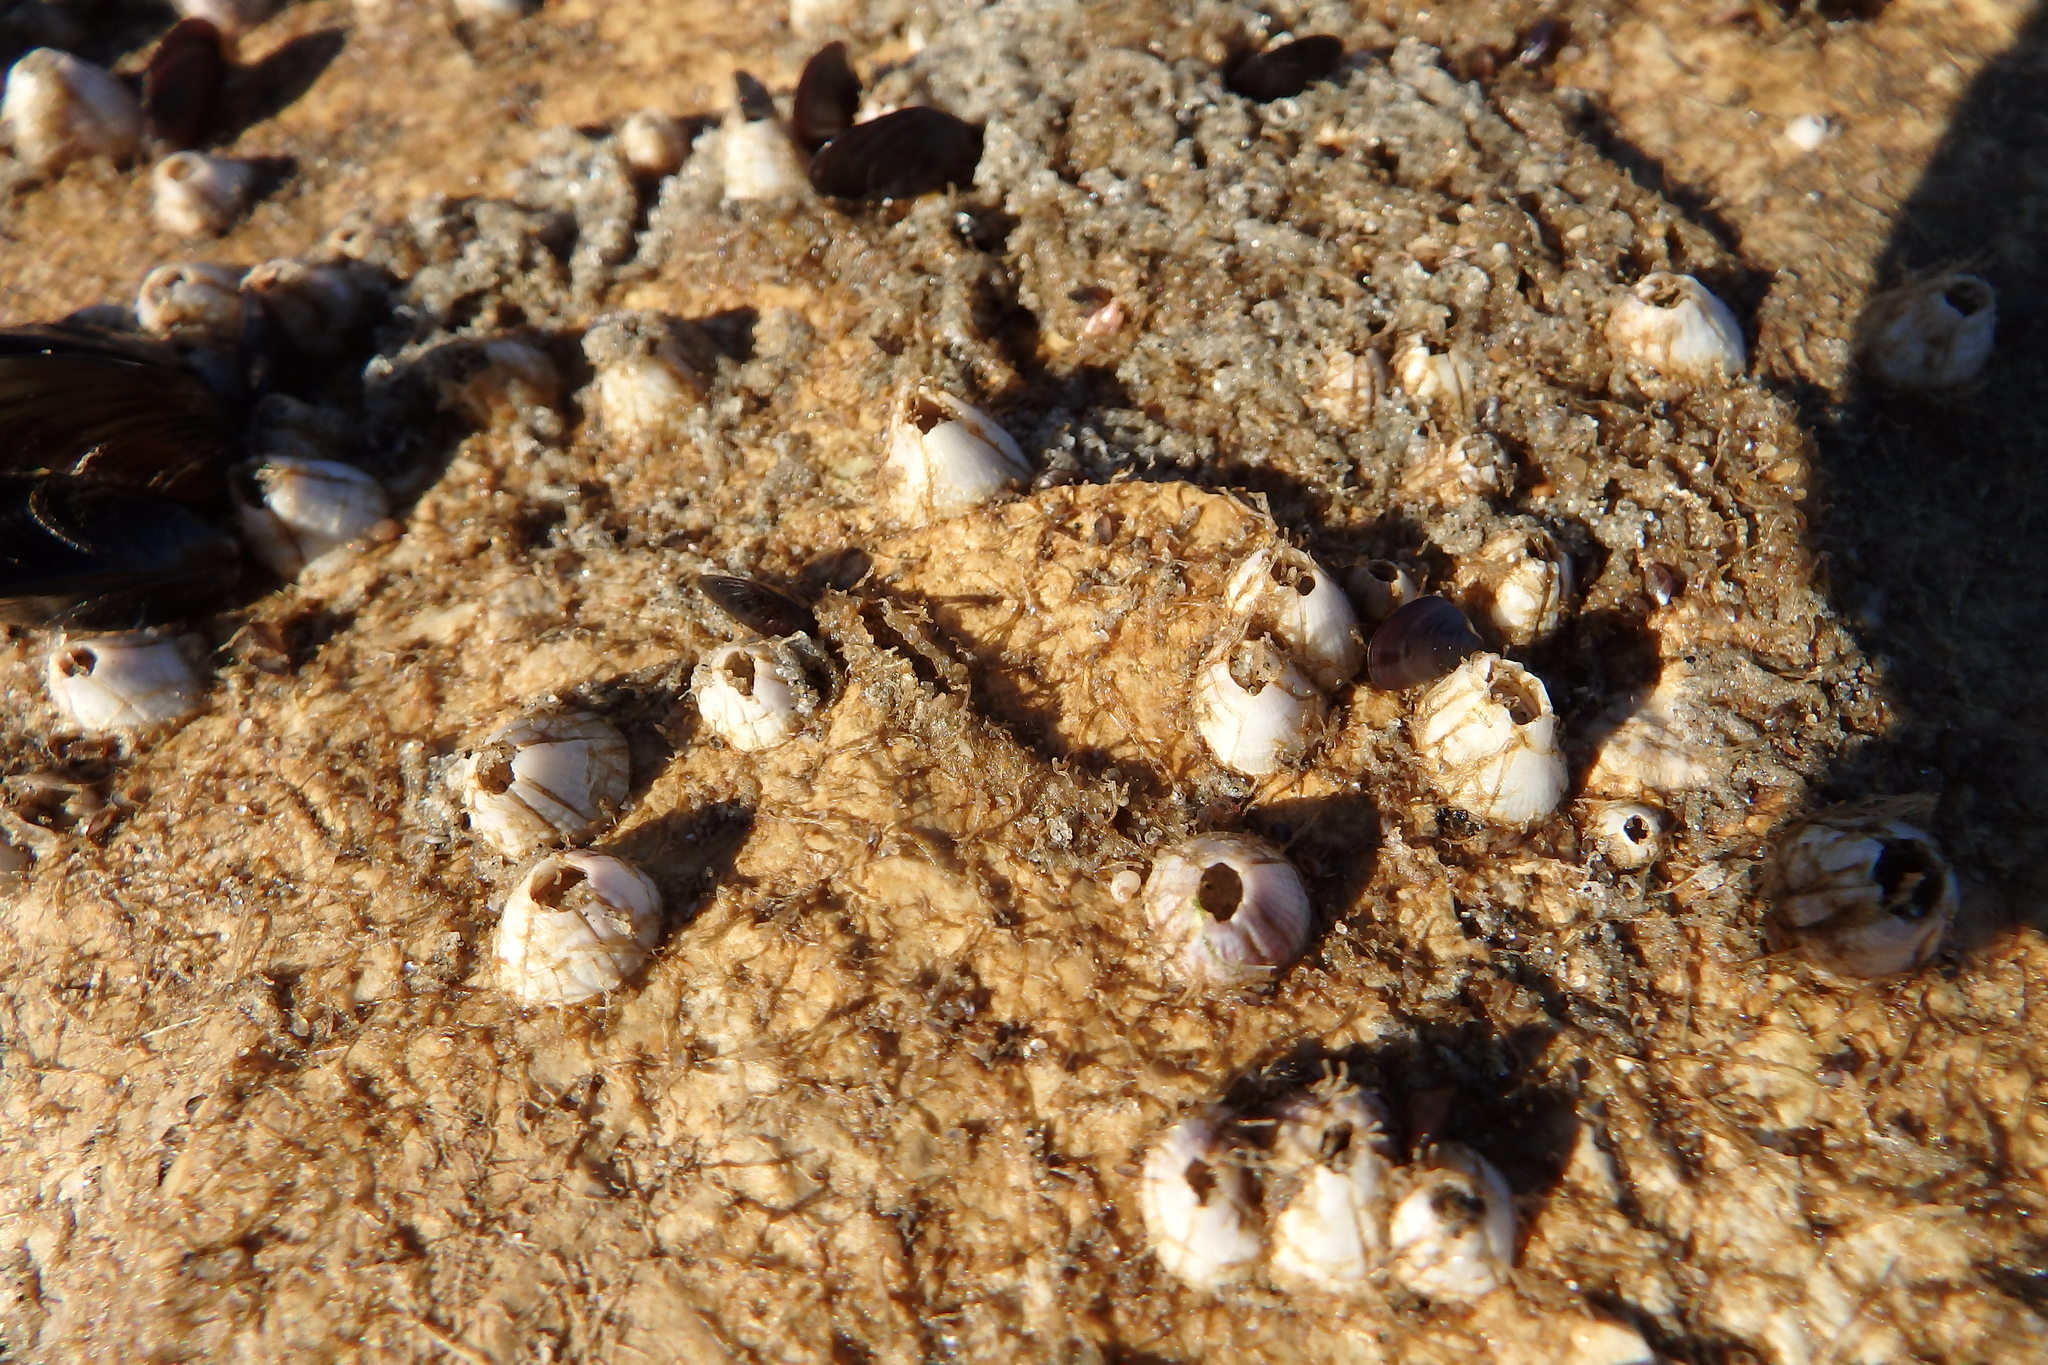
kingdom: Animalia
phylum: Arthropoda
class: Maxillopoda
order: Sessilia
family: Balanidae
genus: Perforatus
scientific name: Perforatus perforatus
